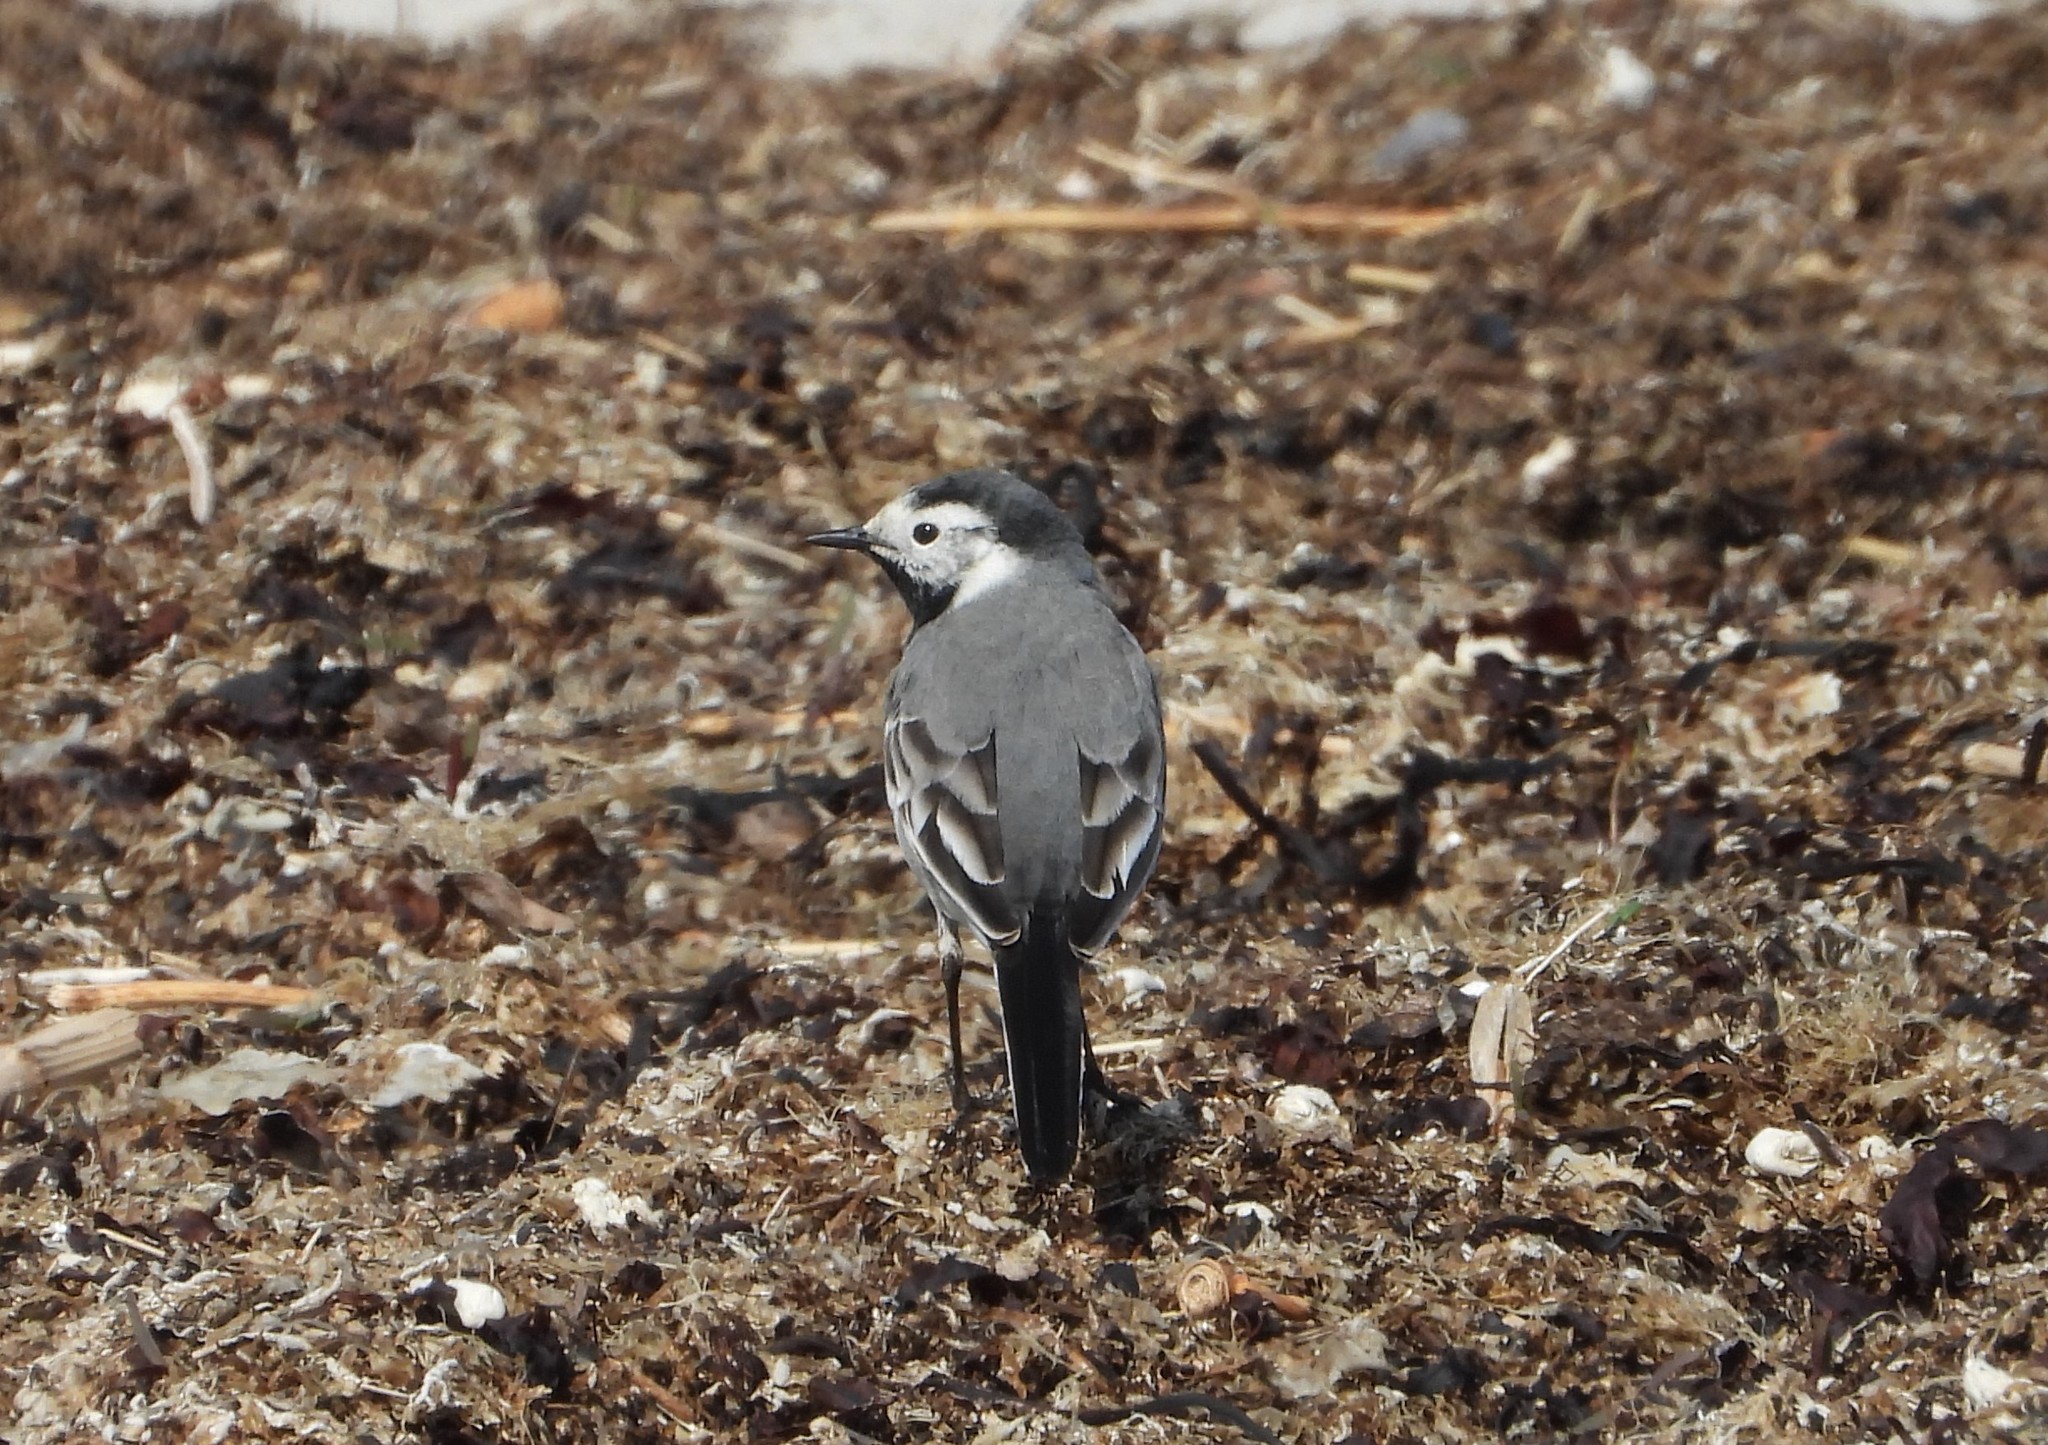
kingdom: Animalia
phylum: Chordata
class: Aves
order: Passeriformes
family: Motacillidae
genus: Motacilla
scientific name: Motacilla alba
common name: White wagtail
